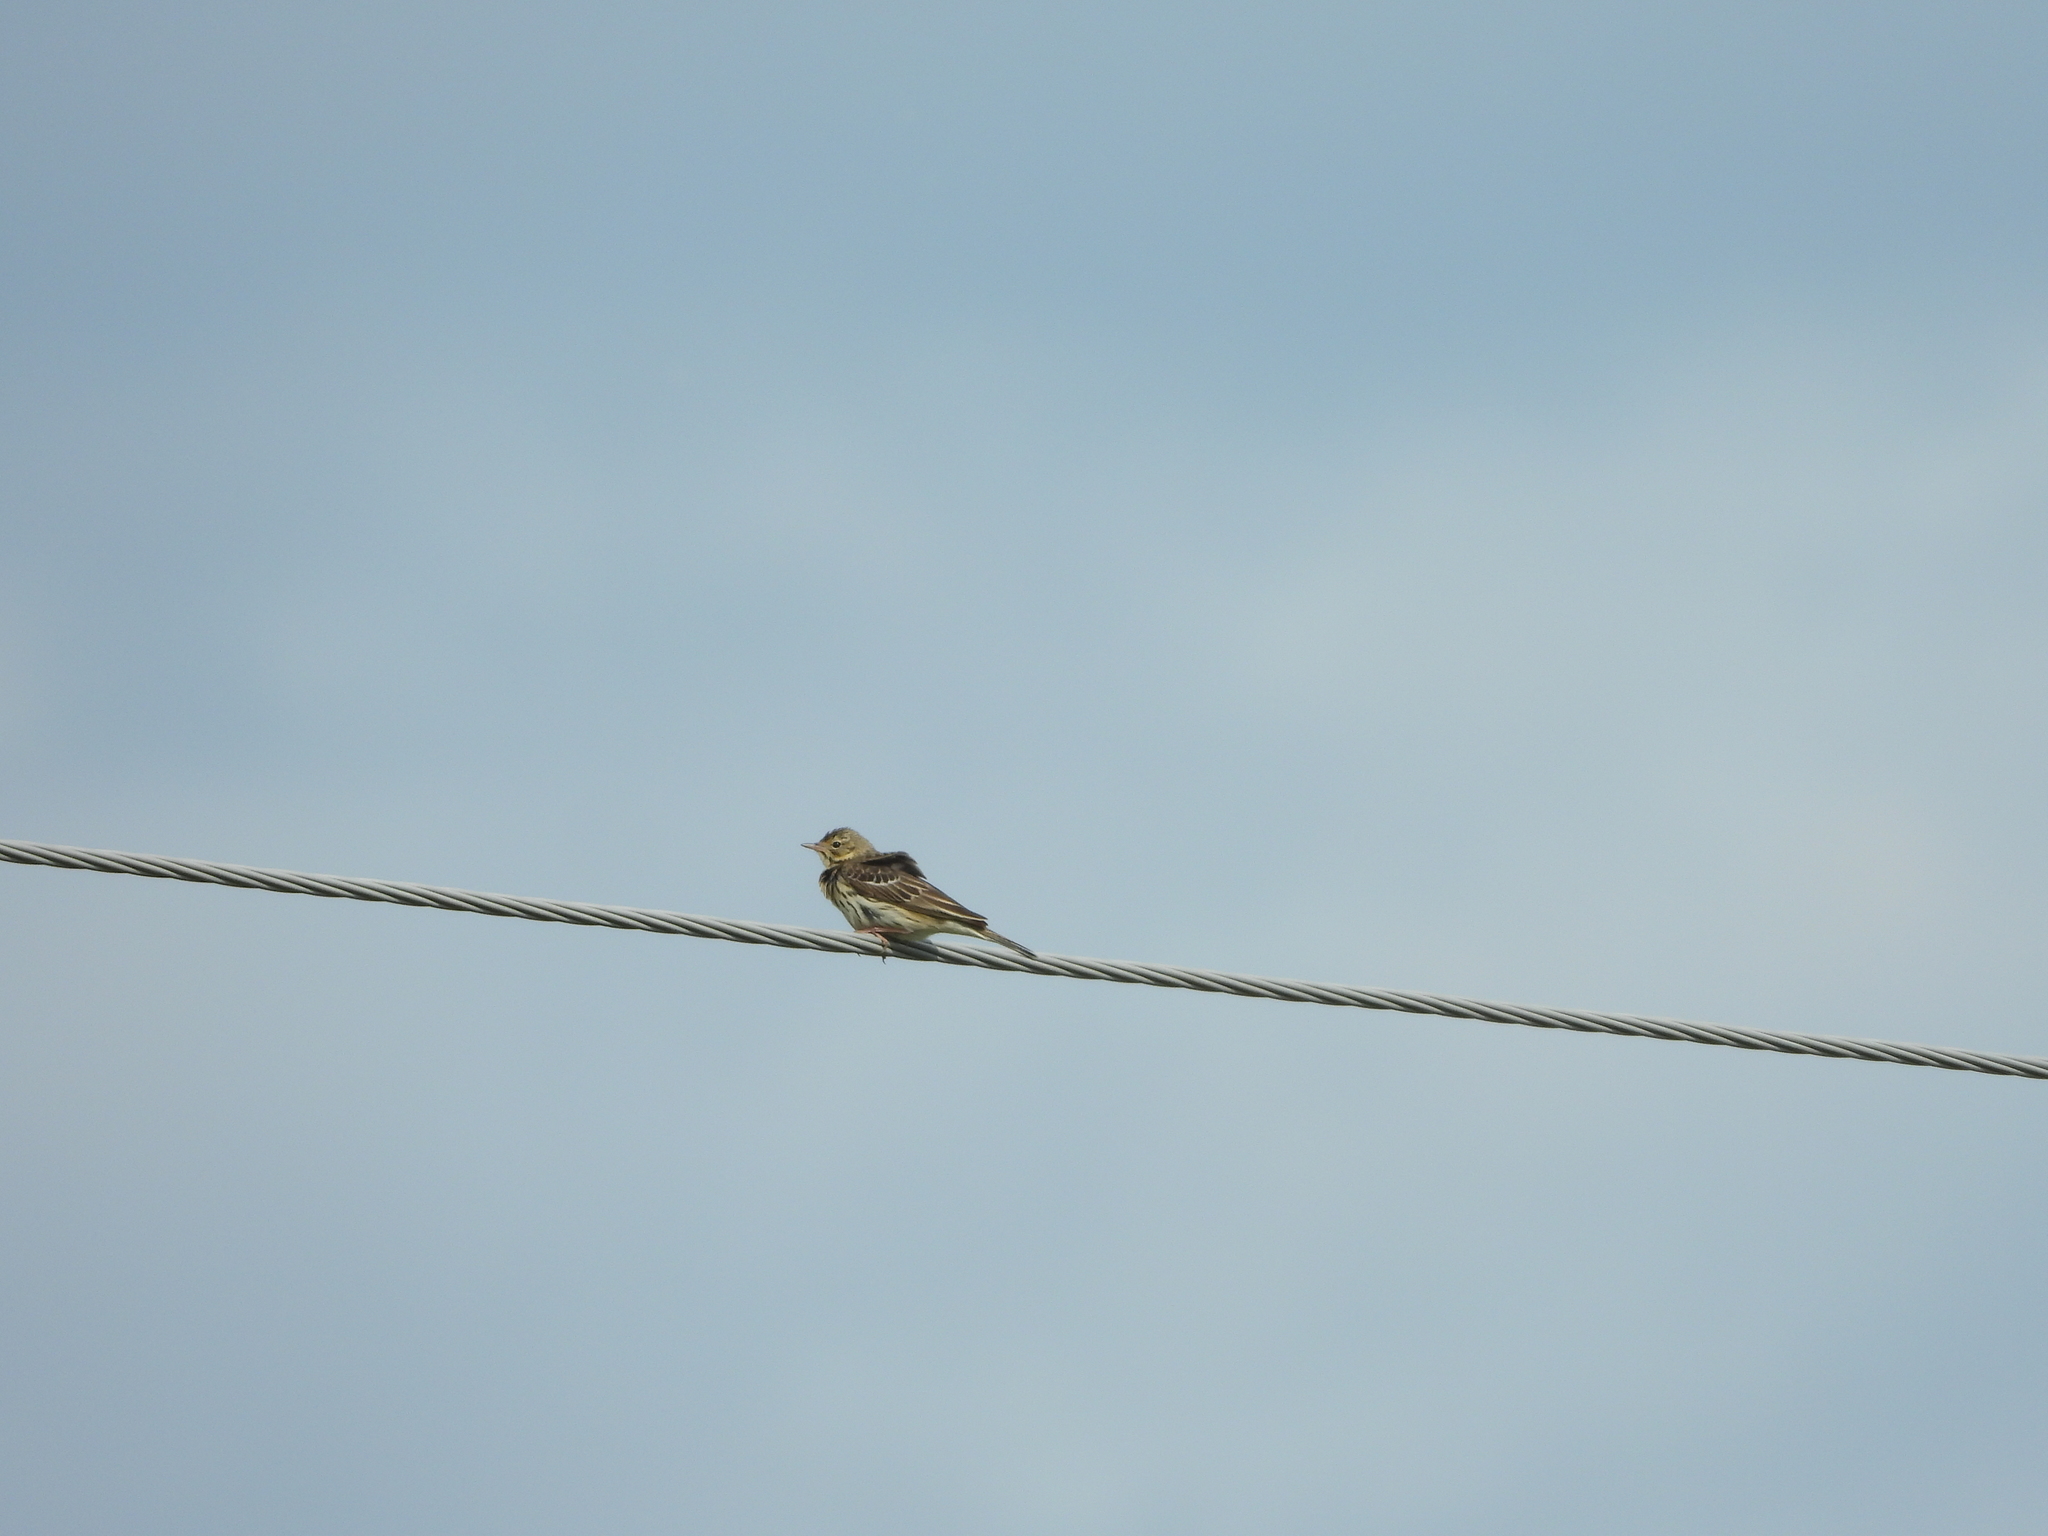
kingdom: Animalia
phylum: Chordata
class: Aves
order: Passeriformes
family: Motacillidae
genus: Anthus
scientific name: Anthus trivialis
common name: Tree pipit
